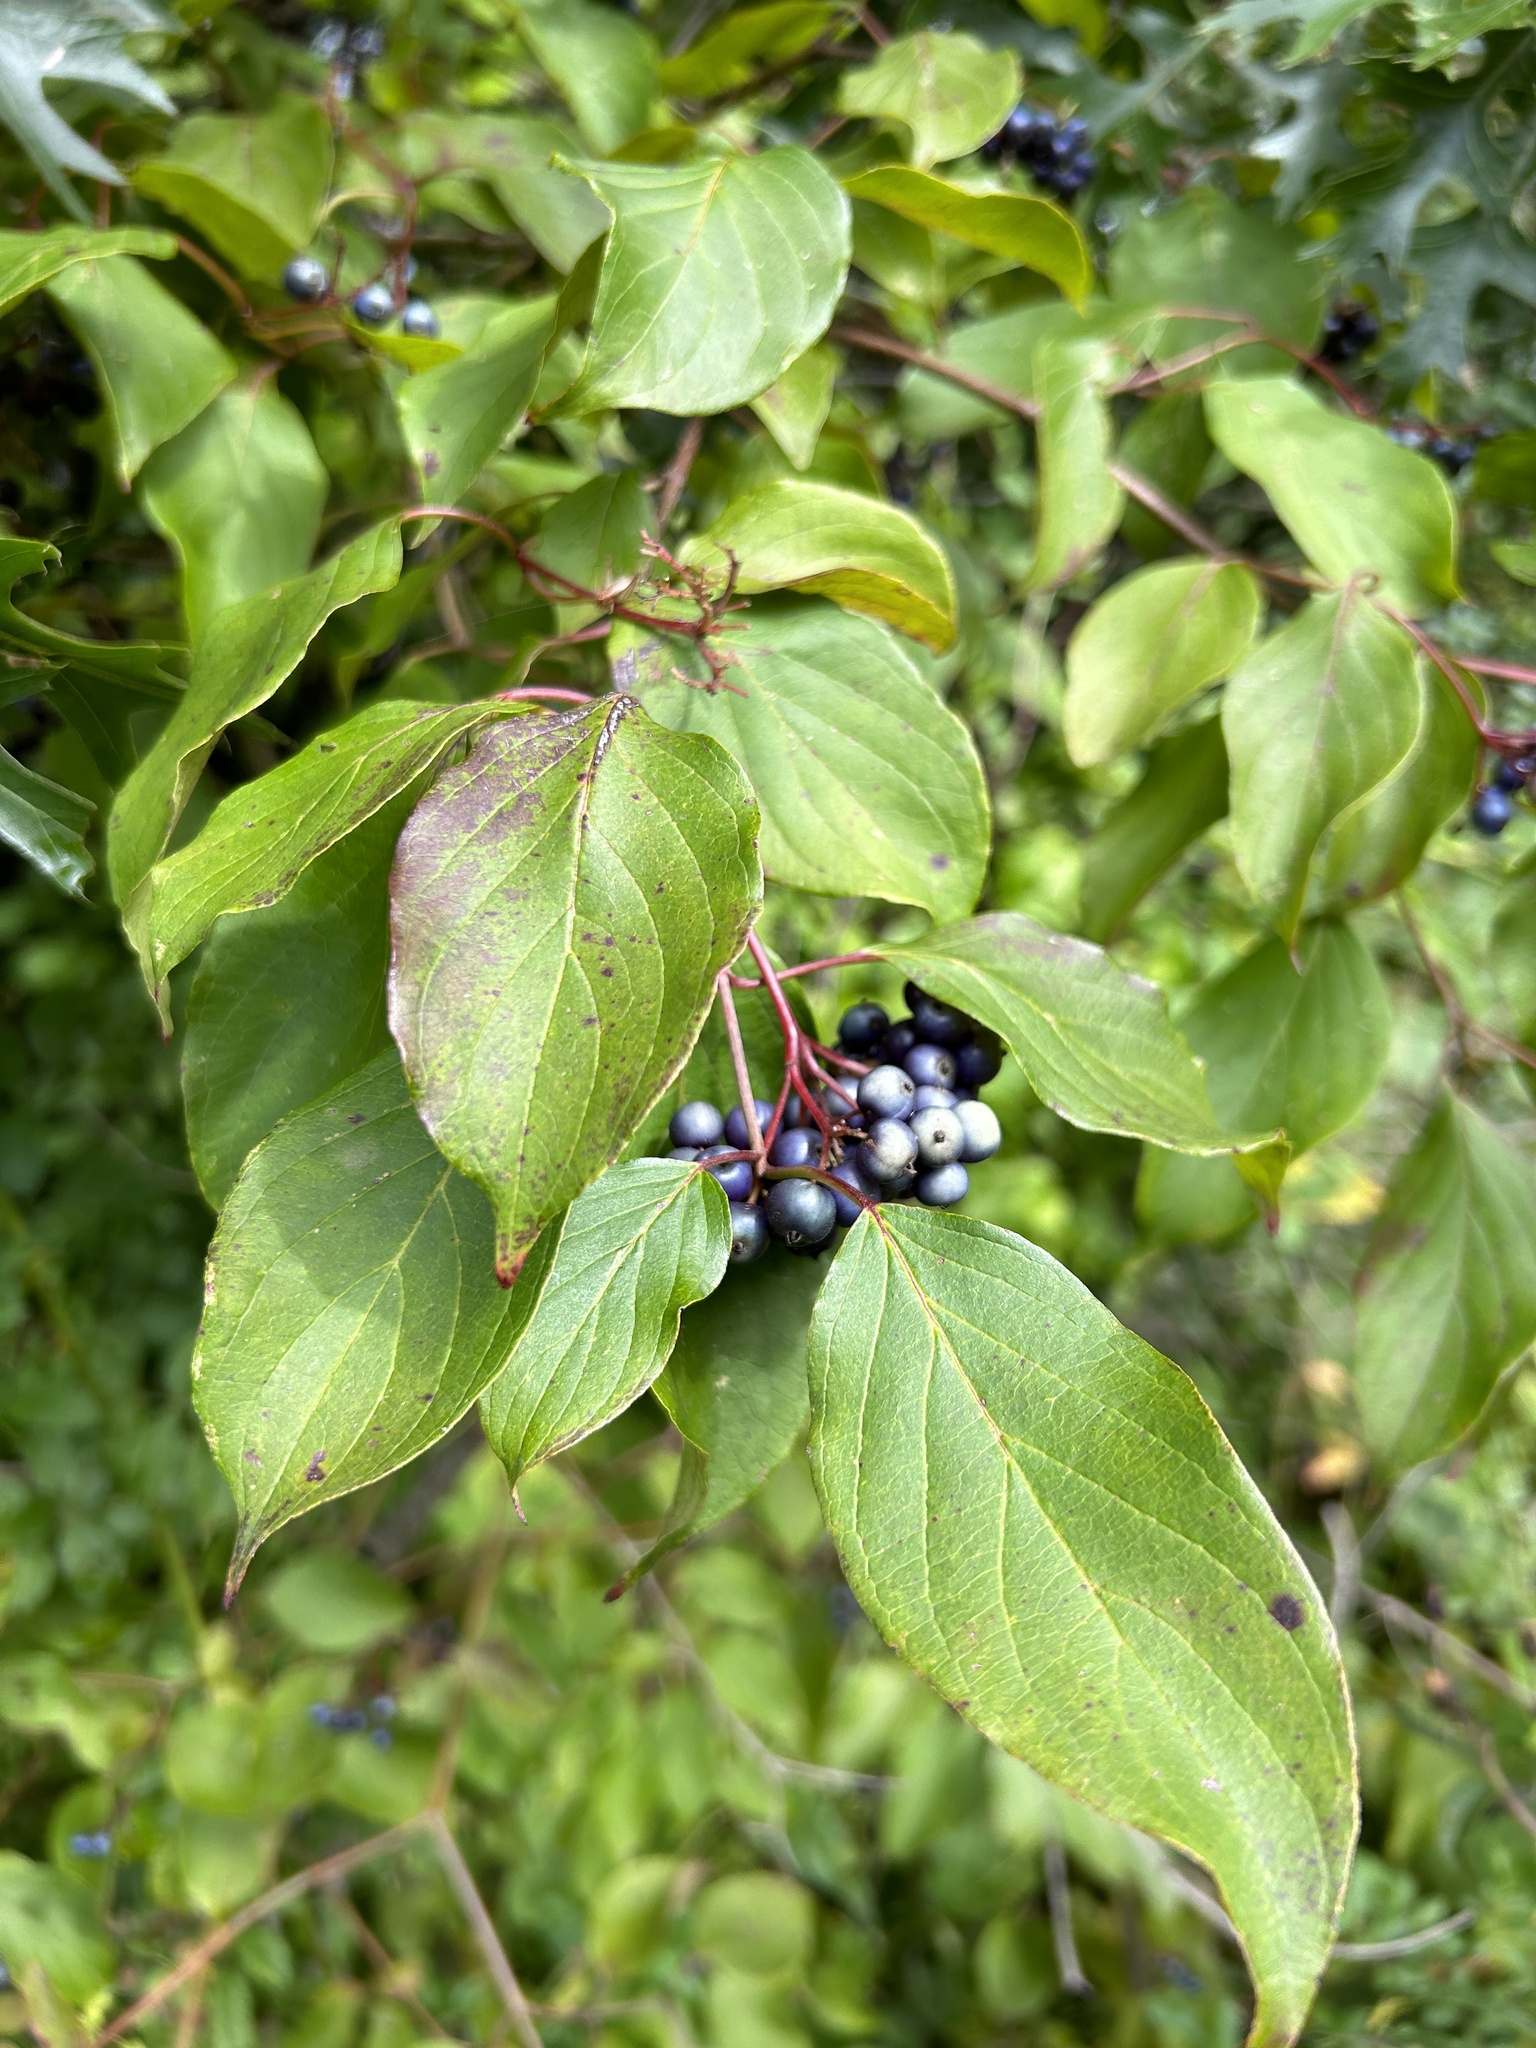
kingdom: Plantae
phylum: Tracheophyta
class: Magnoliopsida
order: Cornales
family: Cornaceae
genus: Cornus
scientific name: Cornus amomum
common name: Silky dogwood
